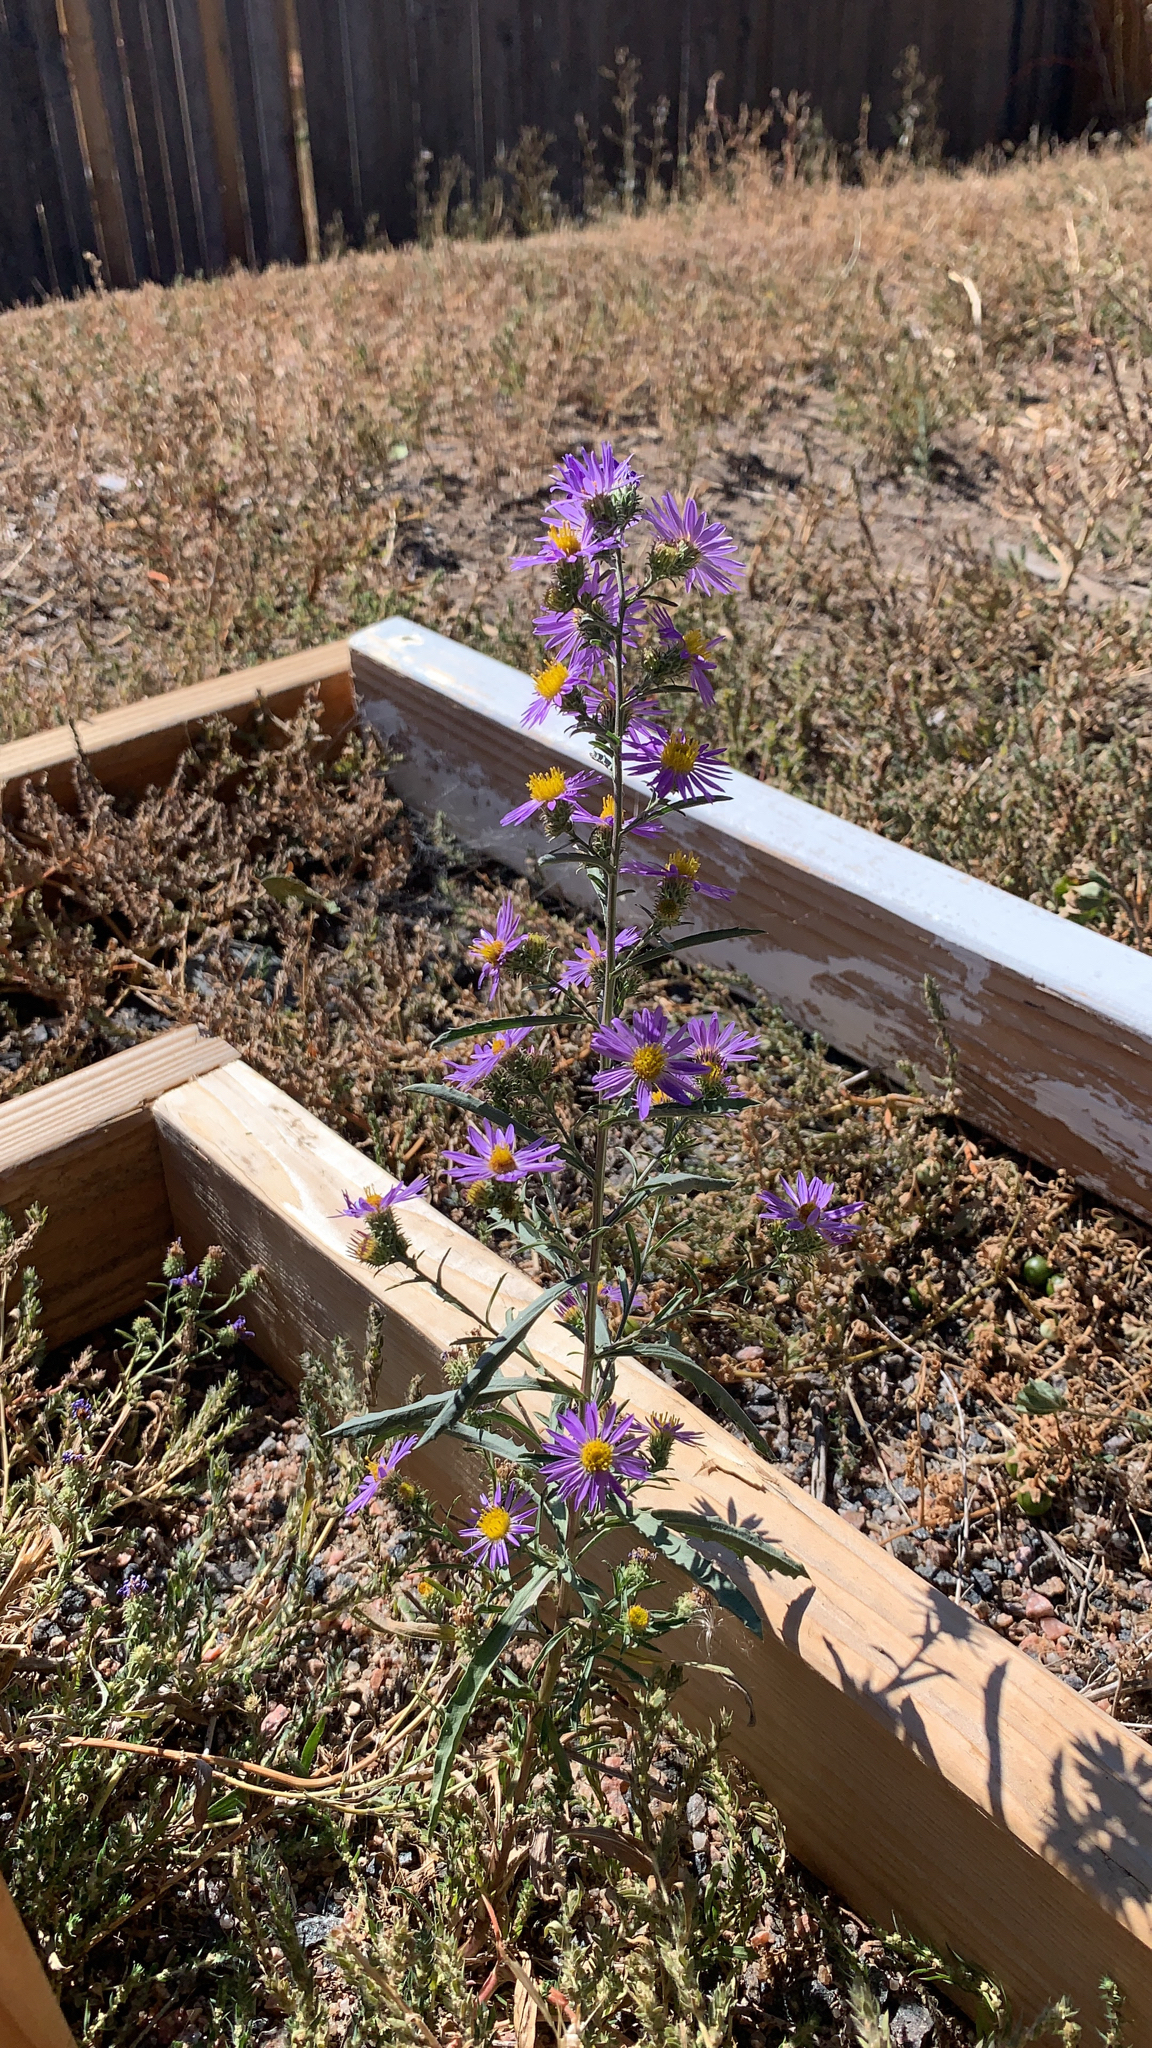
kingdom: Plantae
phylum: Tracheophyta
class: Magnoliopsida
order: Asterales
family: Asteraceae
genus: Dieteria
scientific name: Dieteria canescens
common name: Hoary-aster
